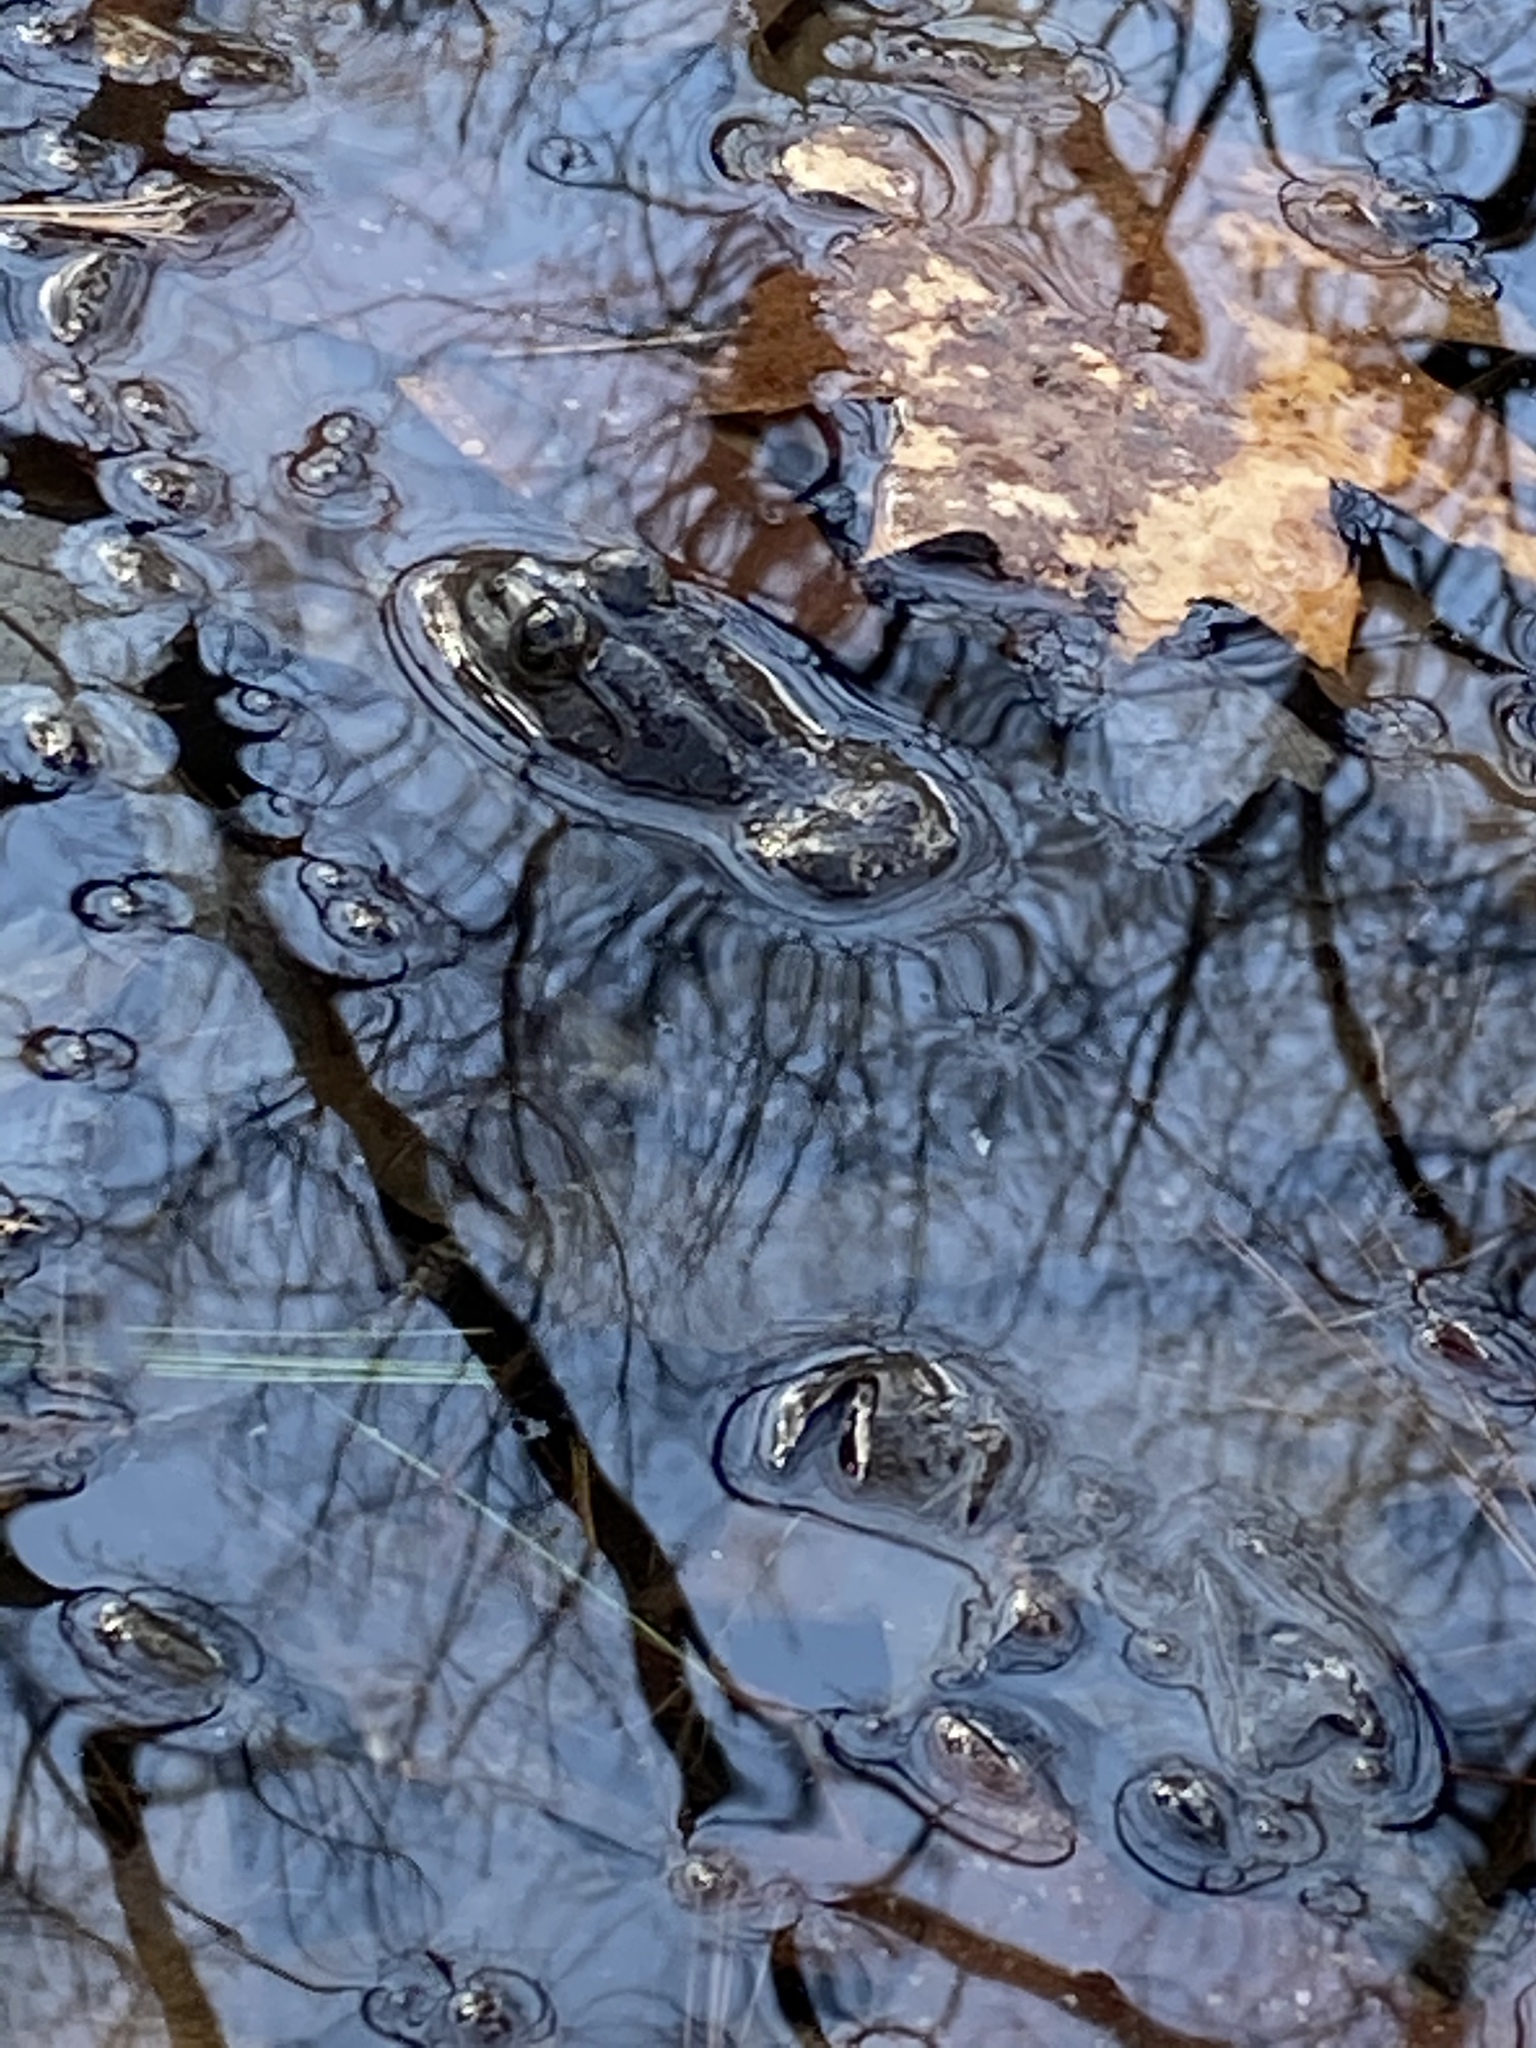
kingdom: Animalia
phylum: Chordata
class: Amphibia
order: Anura
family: Ranidae
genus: Lithobates
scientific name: Lithobates catesbeianus
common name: American bullfrog
